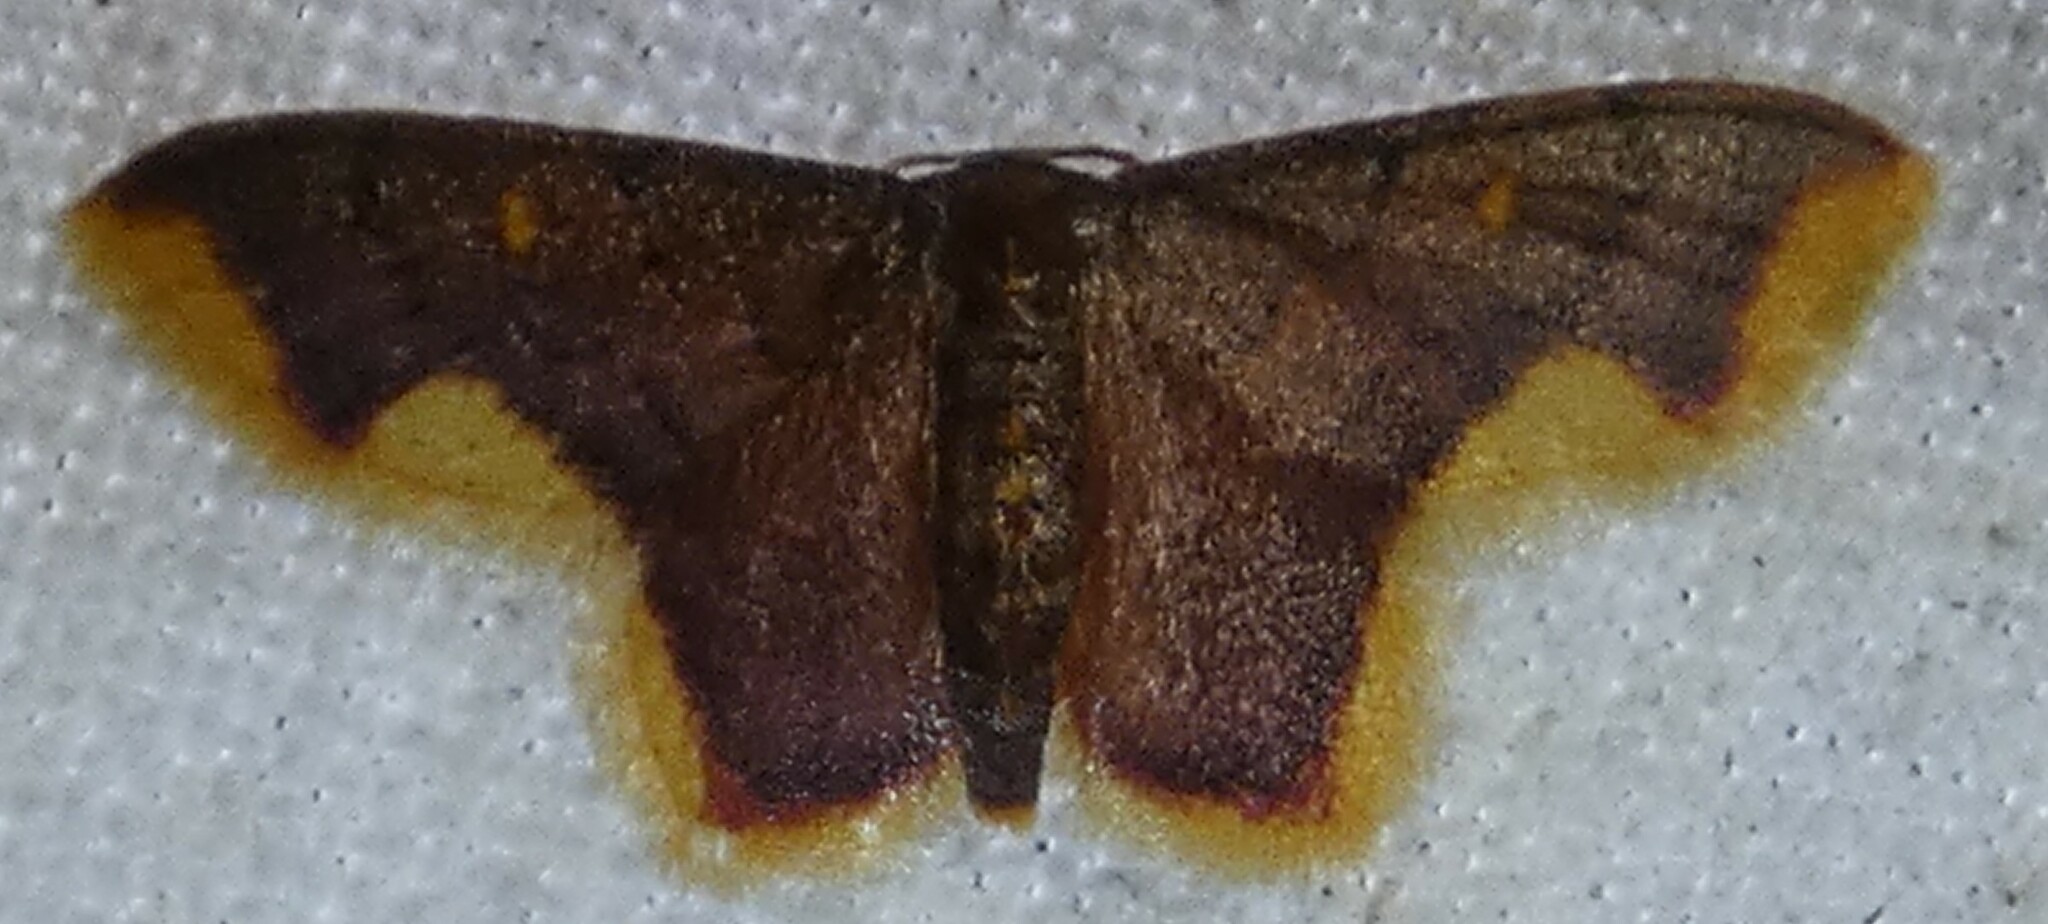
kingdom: Animalia
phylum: Arthropoda
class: Insecta
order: Lepidoptera
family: Geometridae
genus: Lophosis
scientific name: Lophosis labeculata
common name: Stained lophosis moth
